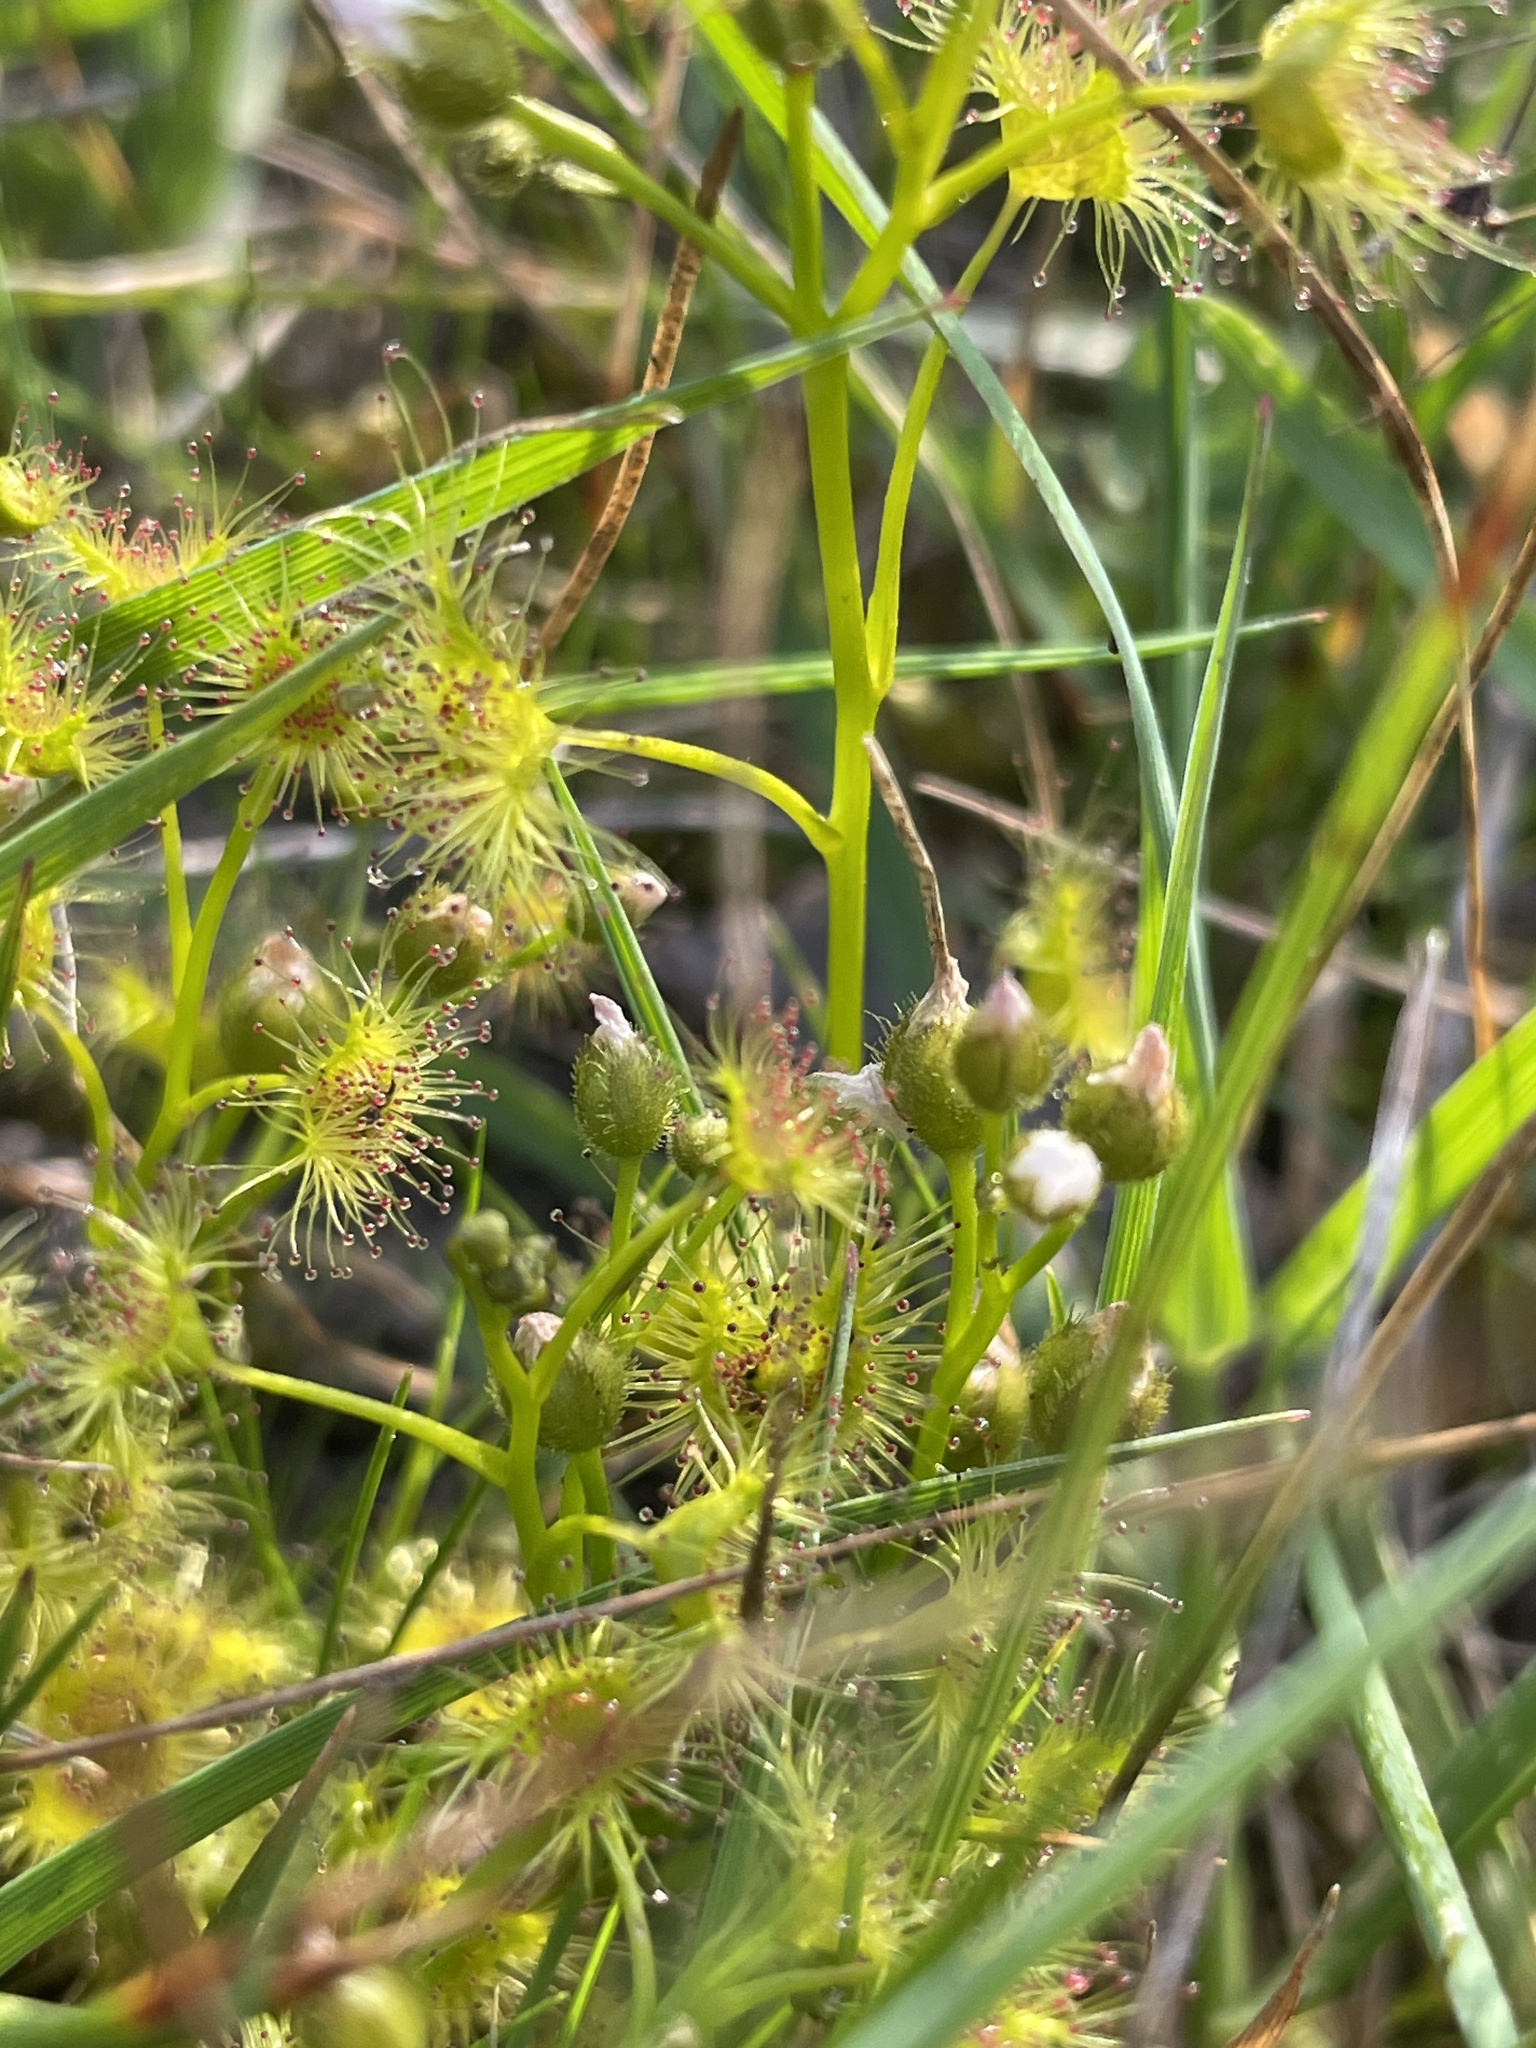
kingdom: Plantae
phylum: Tracheophyta
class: Magnoliopsida
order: Caryophyllales
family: Droseraceae
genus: Drosera
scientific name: Drosera hookeri
